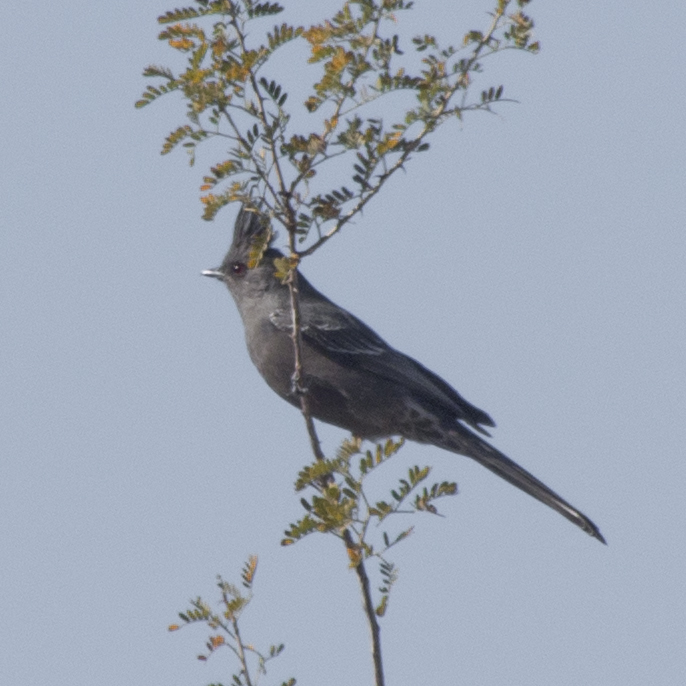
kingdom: Animalia
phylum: Chordata
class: Aves
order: Passeriformes
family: Ptilogonatidae
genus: Phainopepla
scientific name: Phainopepla nitens
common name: Phainopepla
